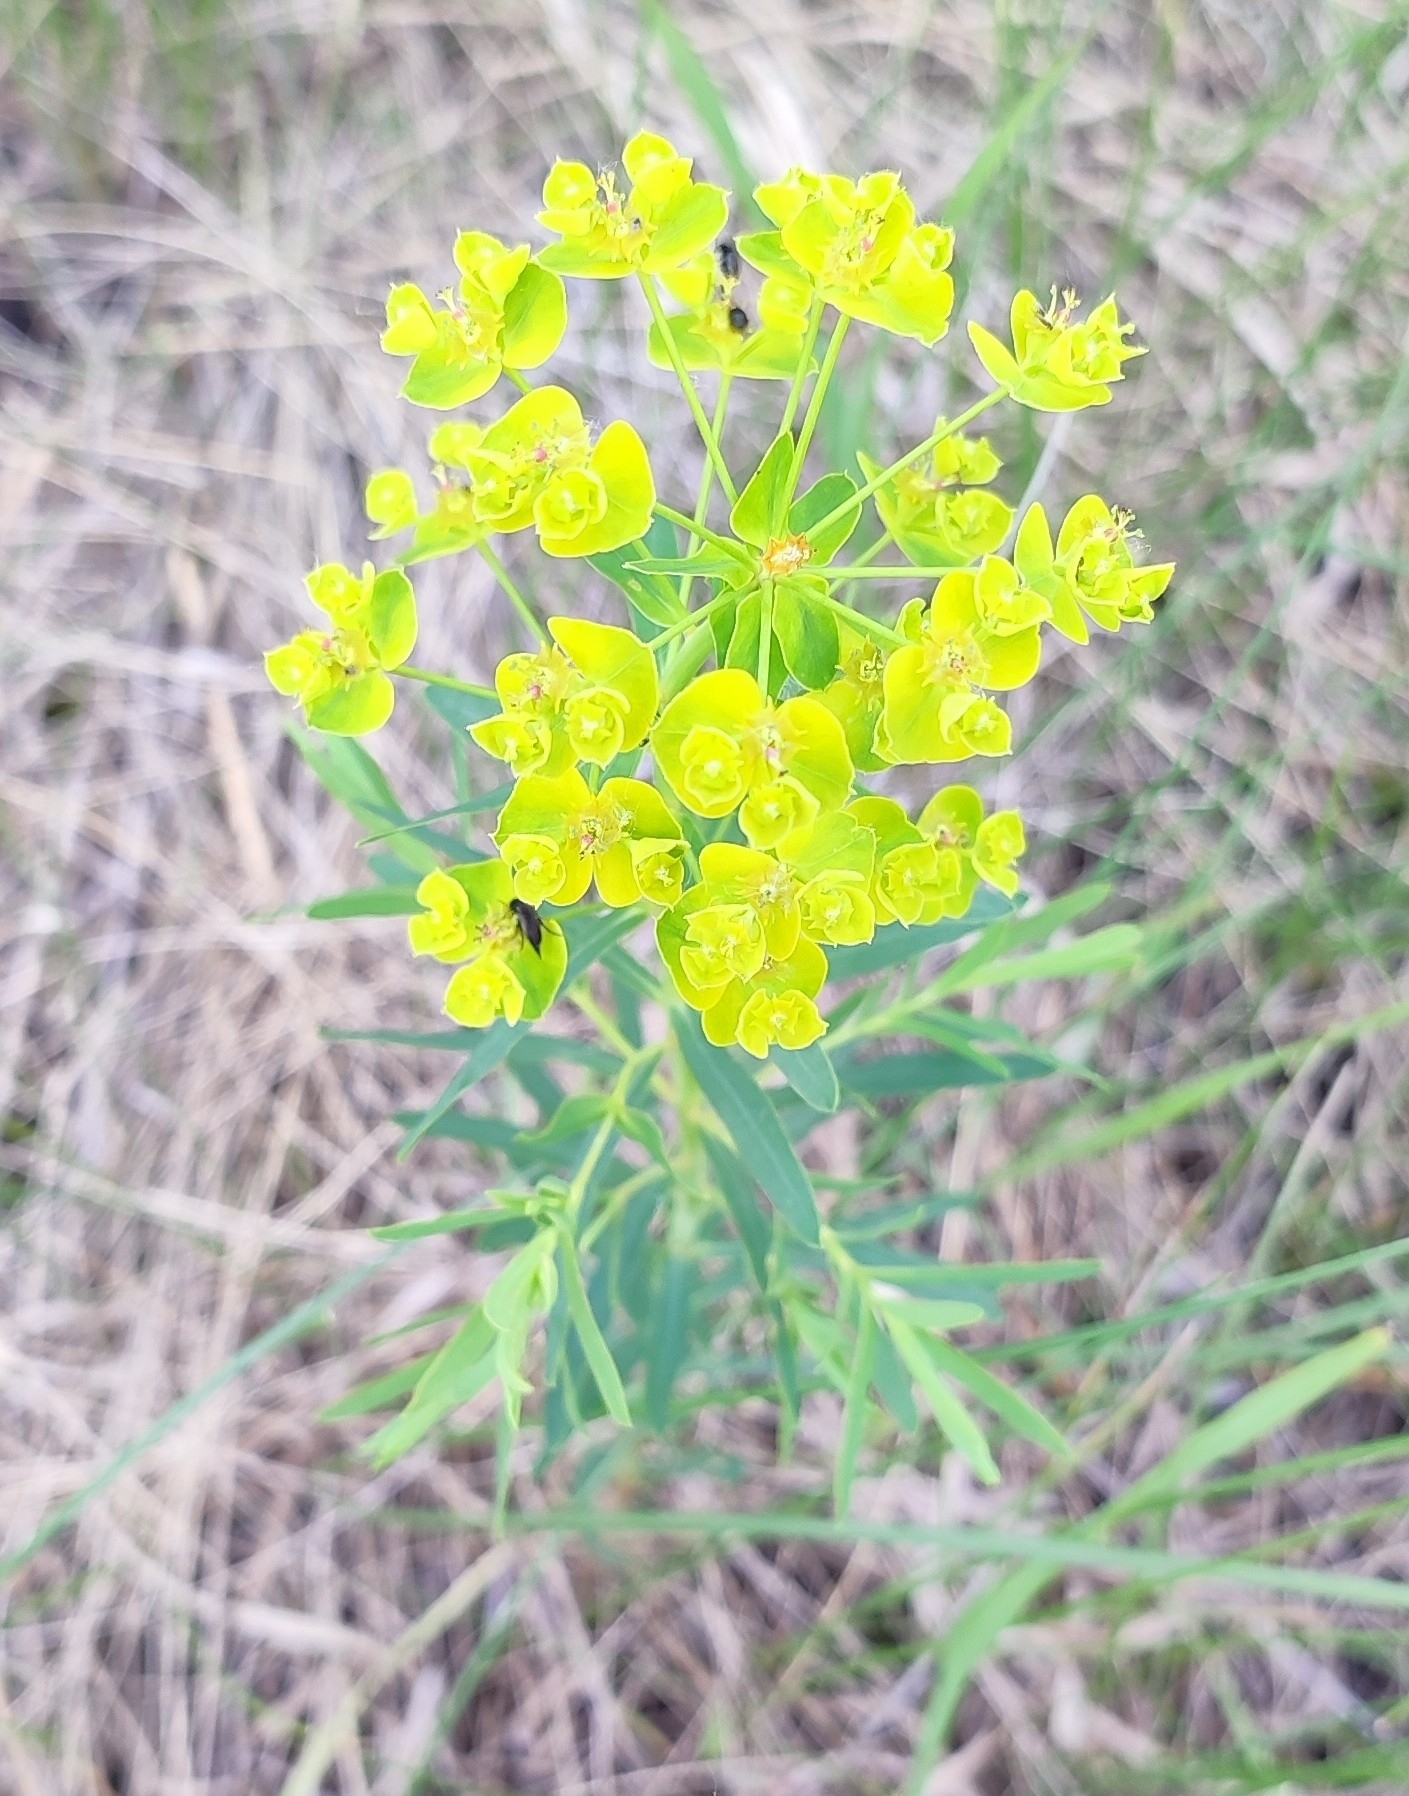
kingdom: Plantae
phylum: Tracheophyta
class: Magnoliopsida
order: Malpighiales
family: Euphorbiaceae
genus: Euphorbia
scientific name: Euphorbia virgata
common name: Leafy spurge
